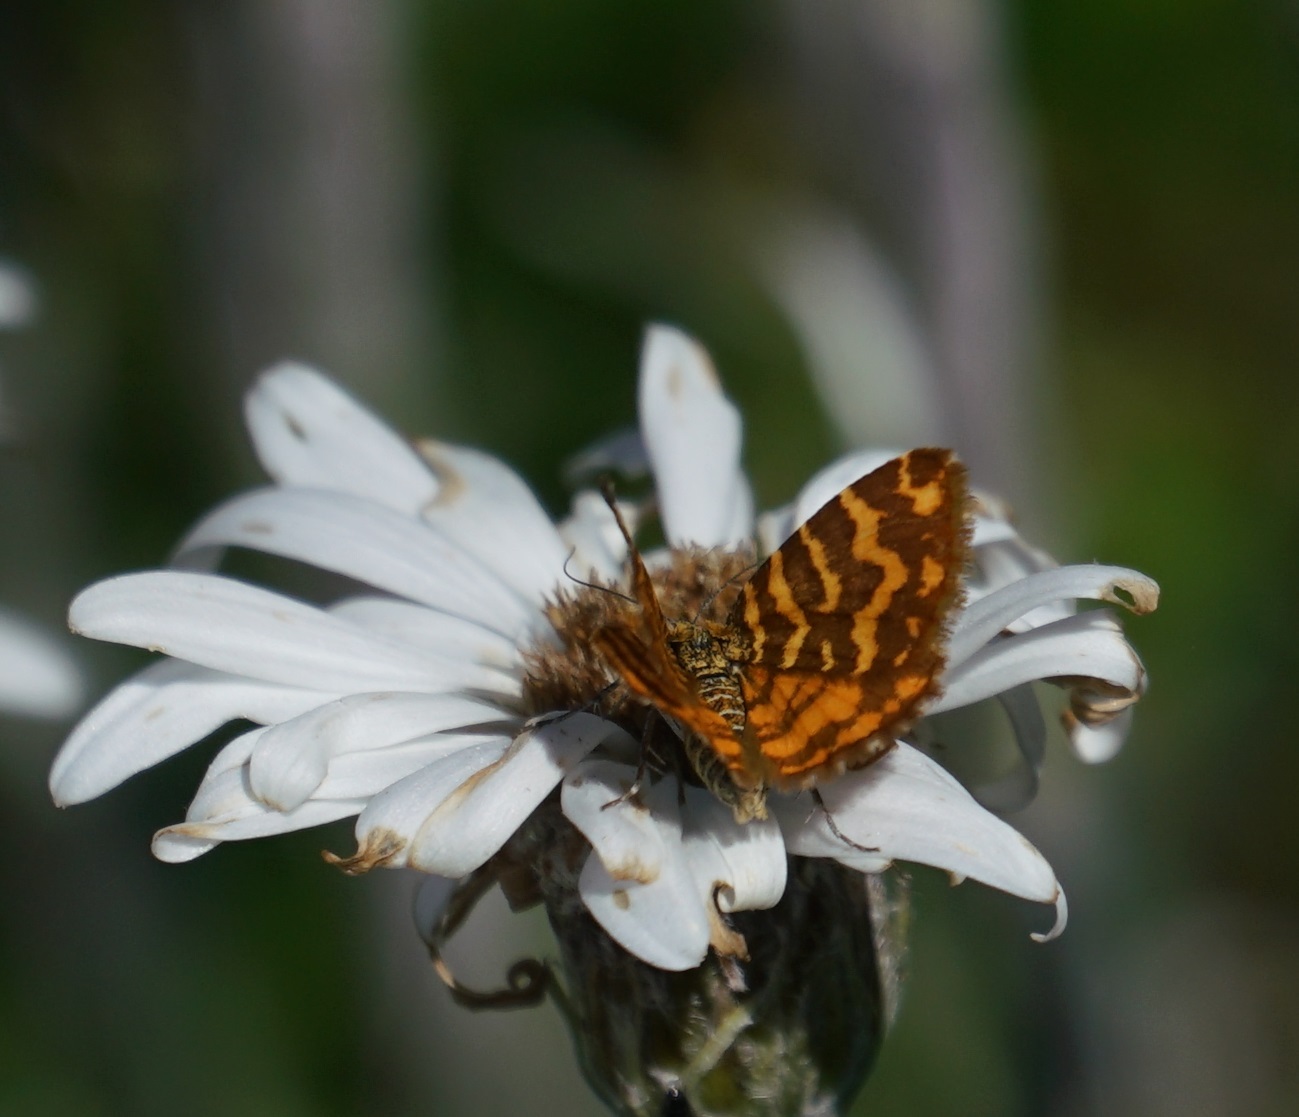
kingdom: Animalia
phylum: Arthropoda
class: Insecta
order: Lepidoptera
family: Geometridae
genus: Chrysolarentia
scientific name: Chrysolarentia chrysocyma
